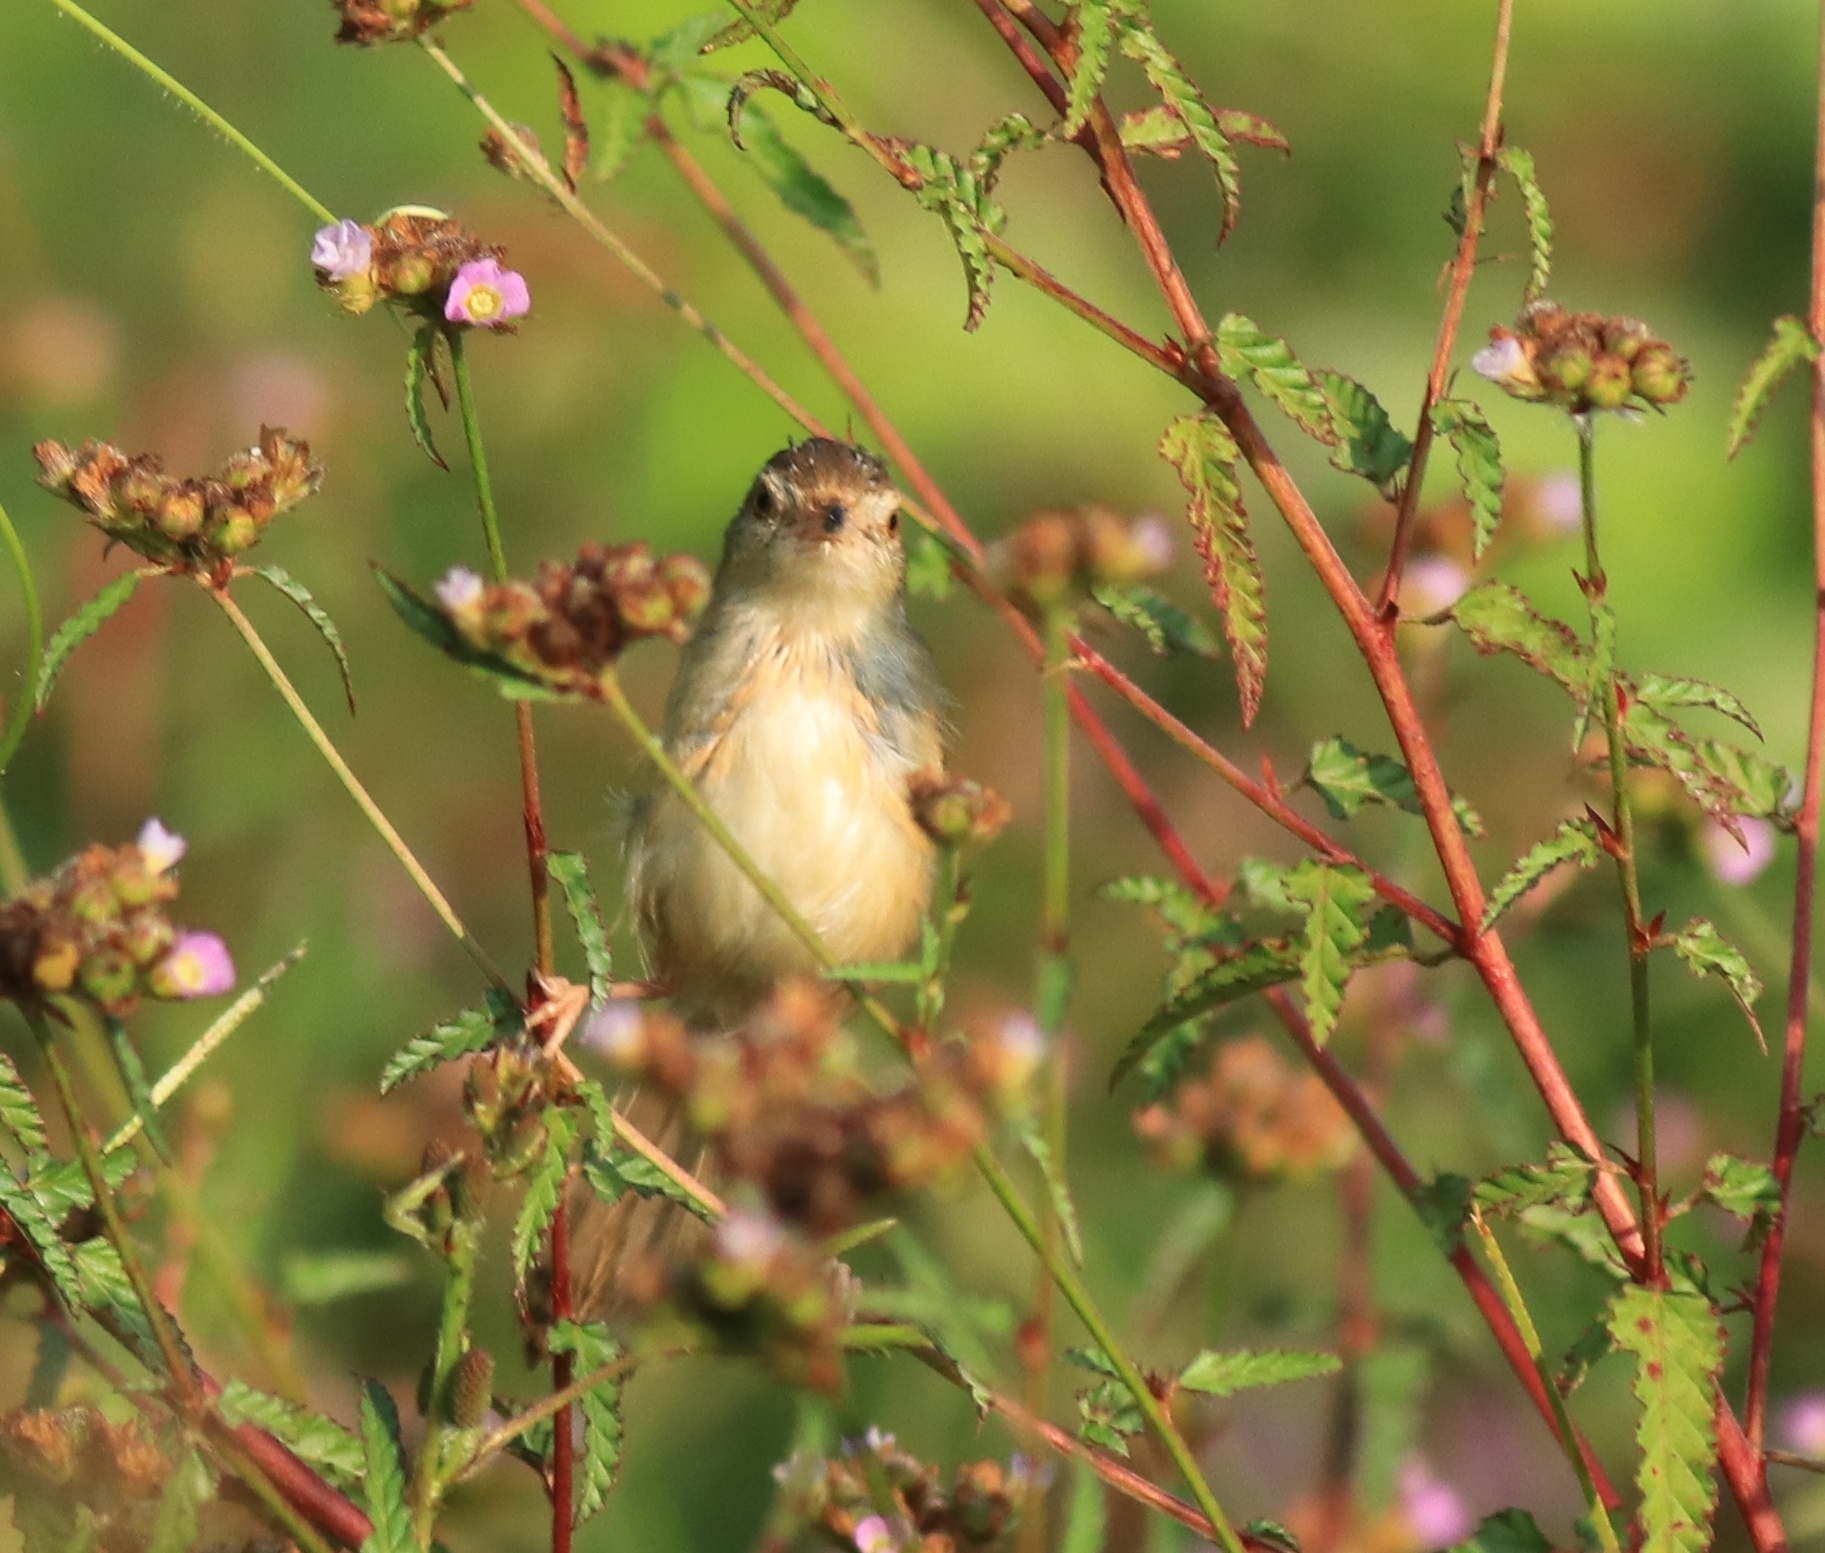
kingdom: Animalia
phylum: Chordata
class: Aves
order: Passeriformes
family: Cisticolidae
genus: Prinia
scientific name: Prinia inornata
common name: Plain prinia
